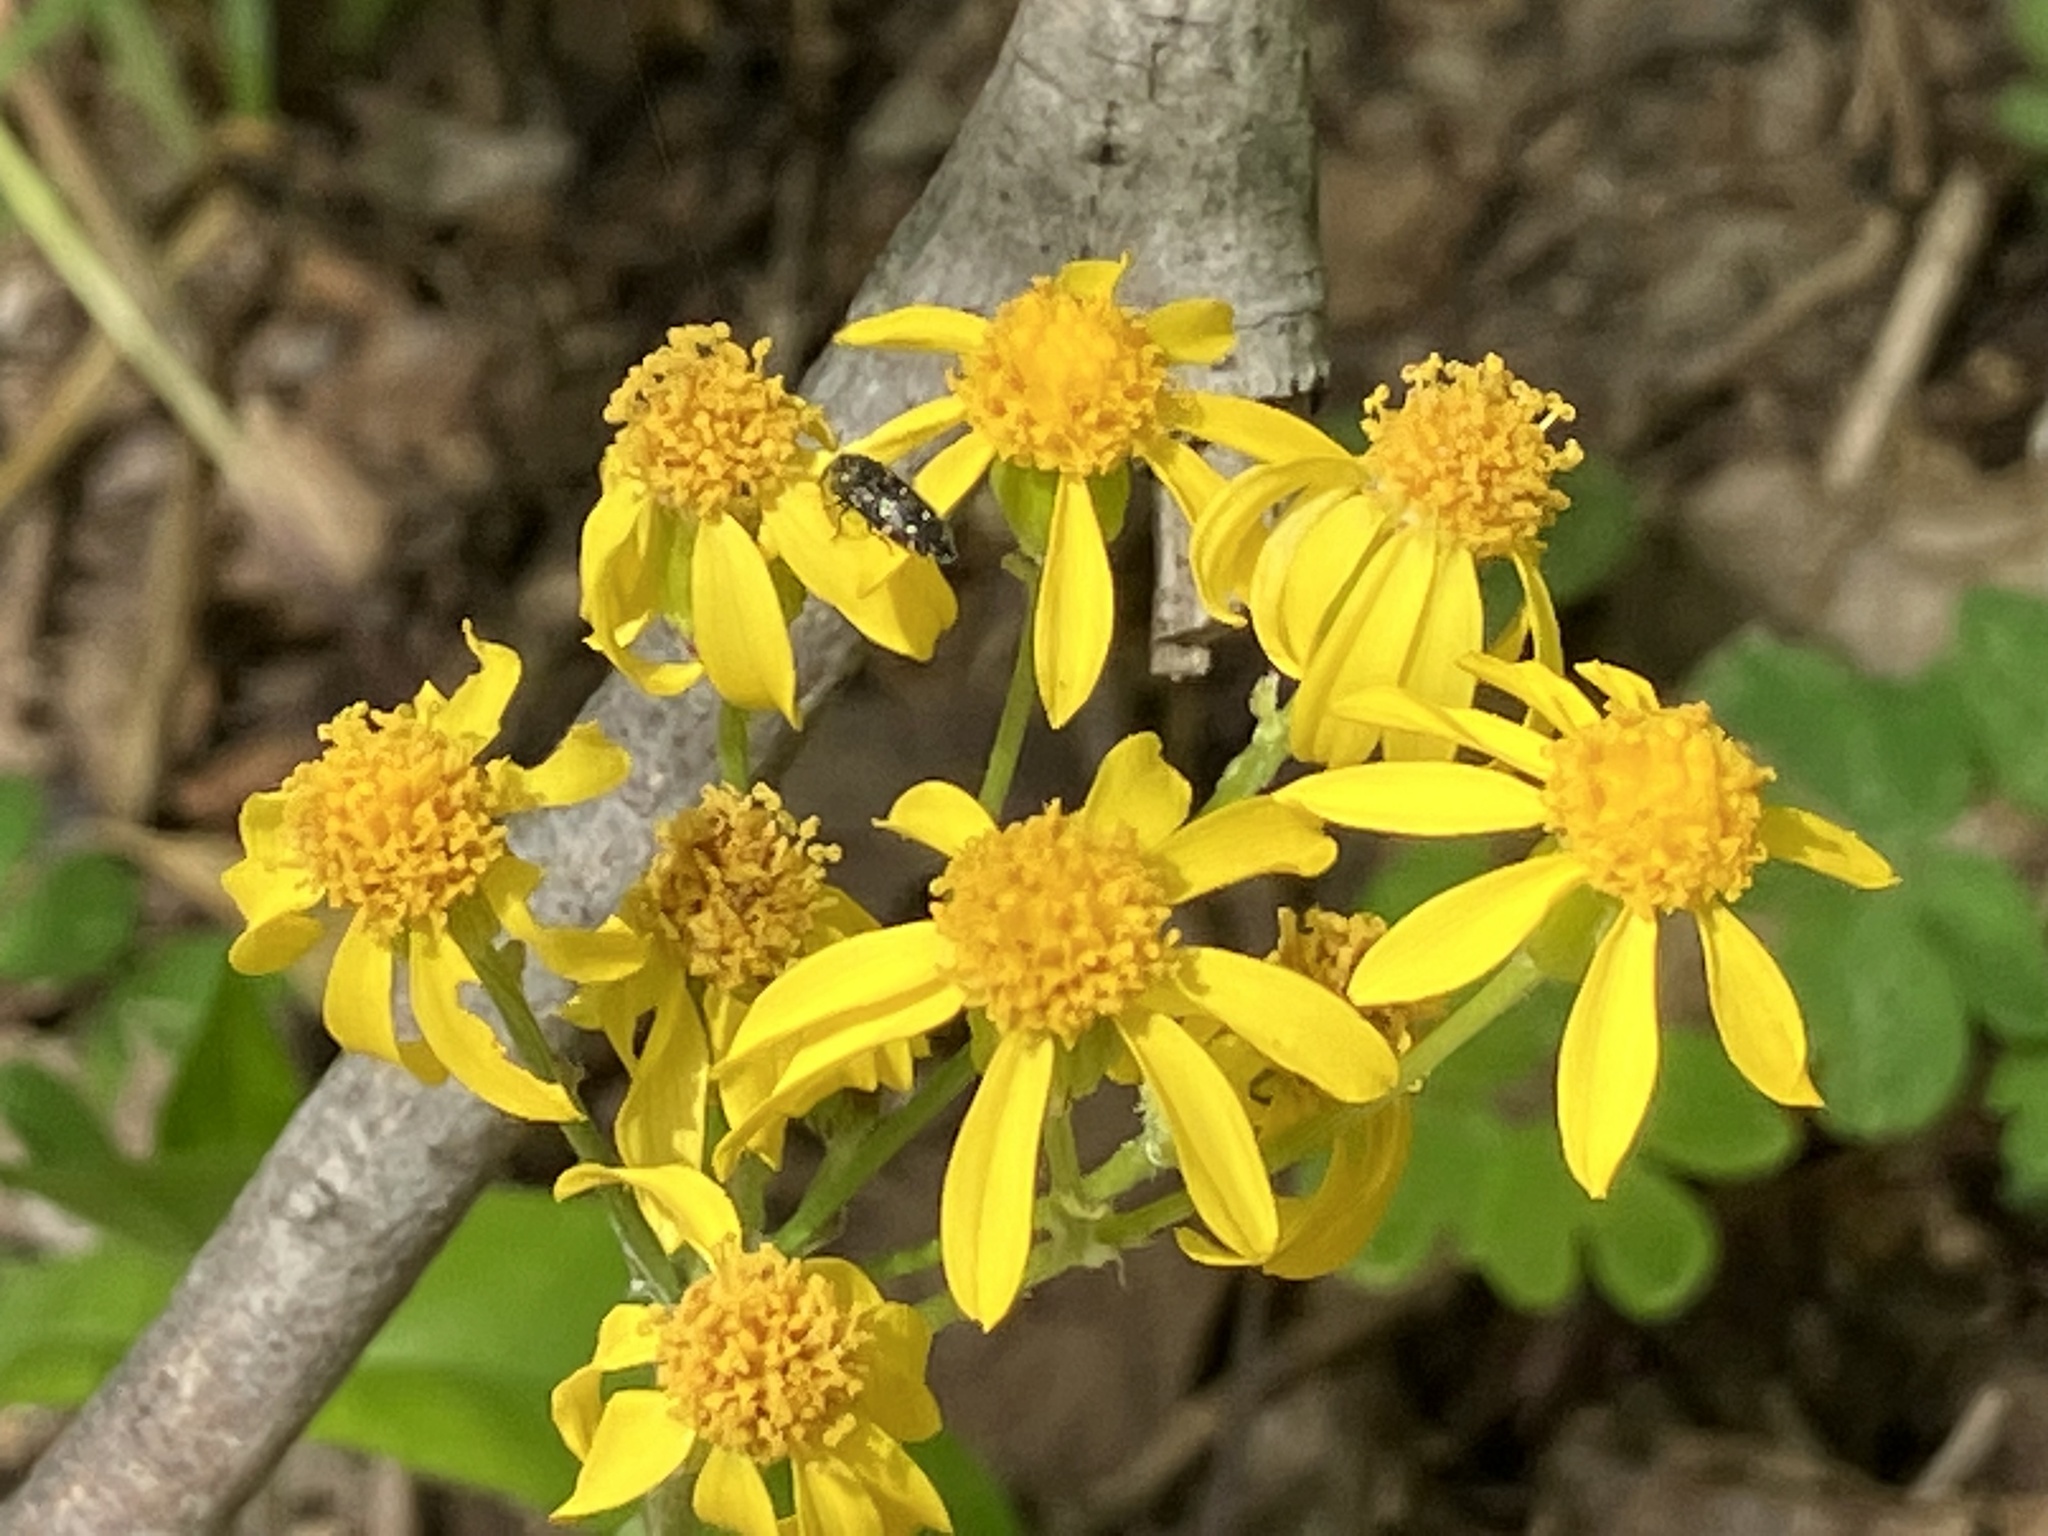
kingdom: Animalia
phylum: Arthropoda
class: Insecta
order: Coleoptera
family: Buprestidae
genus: Acmaeodera
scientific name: Acmaeodera tubulus
